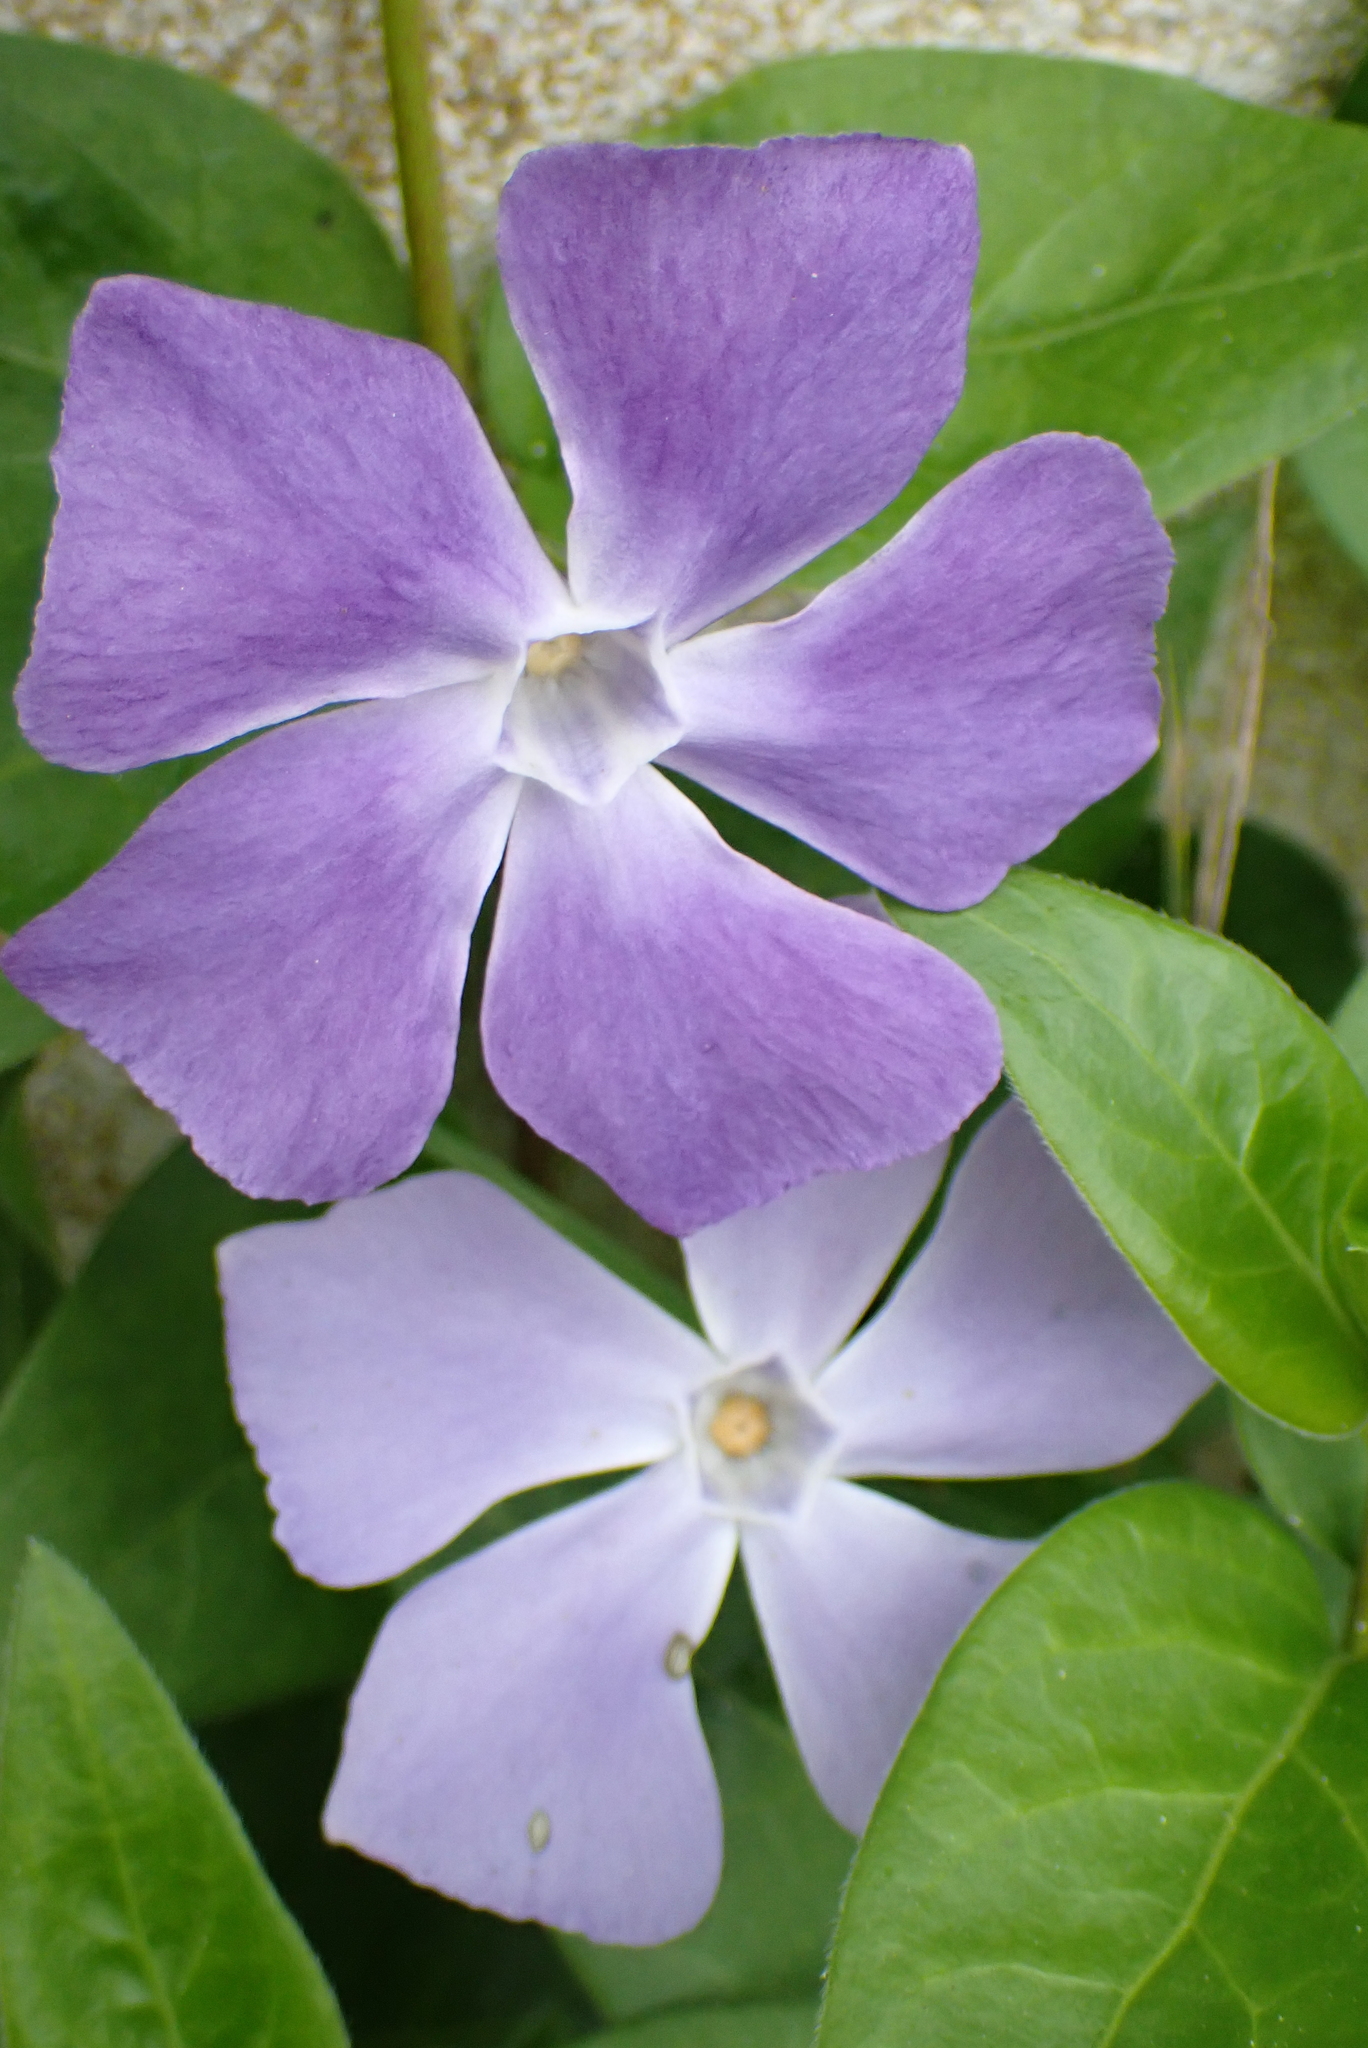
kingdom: Plantae
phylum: Tracheophyta
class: Magnoliopsida
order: Gentianales
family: Apocynaceae
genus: Vinca
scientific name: Vinca major
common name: Greater periwinkle
